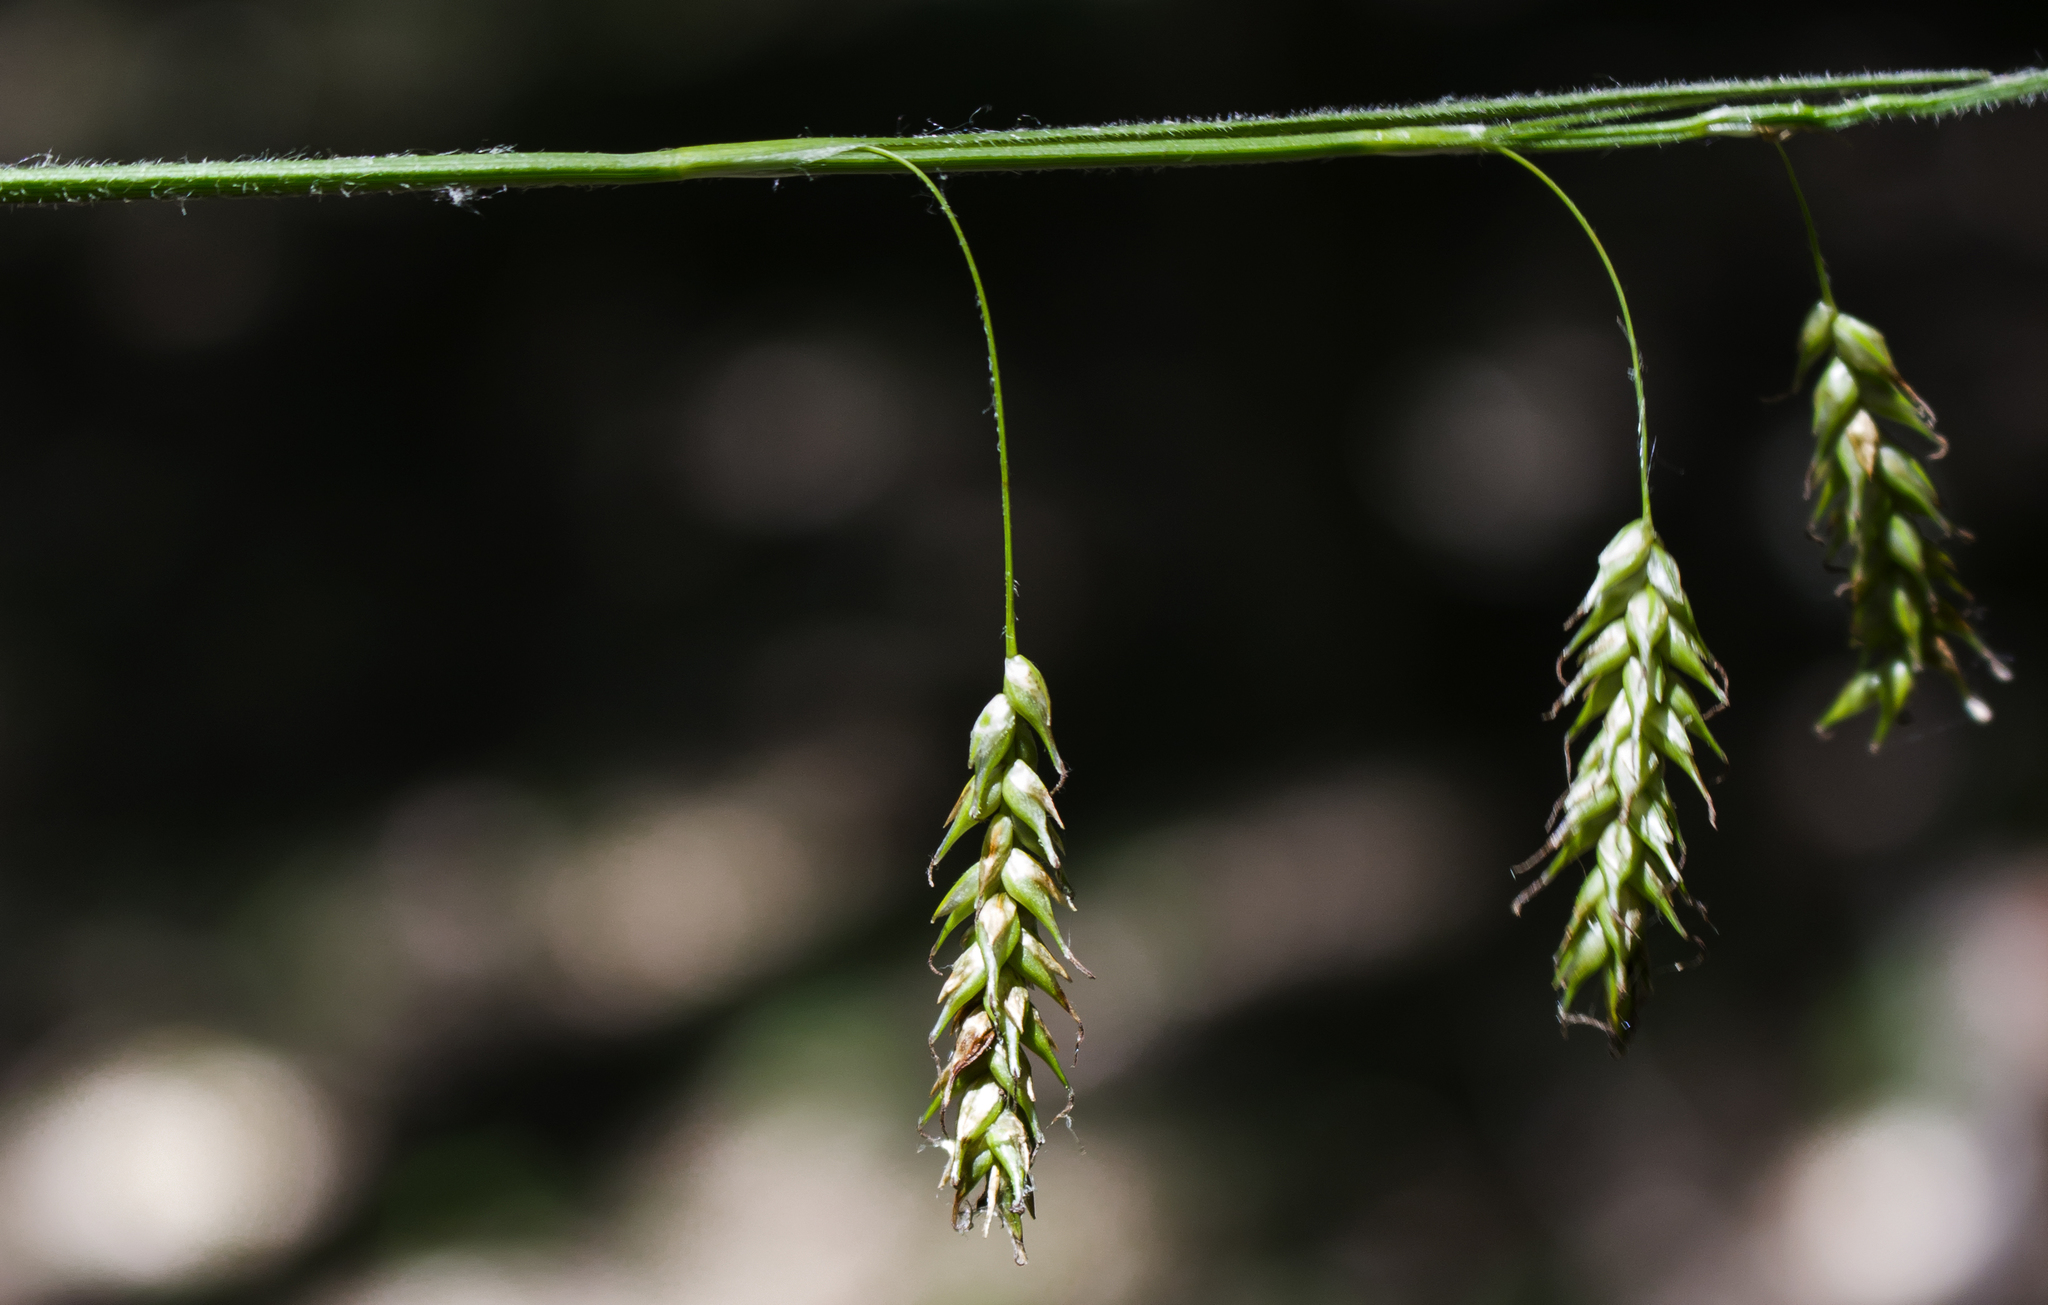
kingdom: Plantae
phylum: Tracheophyta
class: Liliopsida
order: Poales
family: Cyperaceae
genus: Carex
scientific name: Carex castanea
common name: Chestnut sedge
